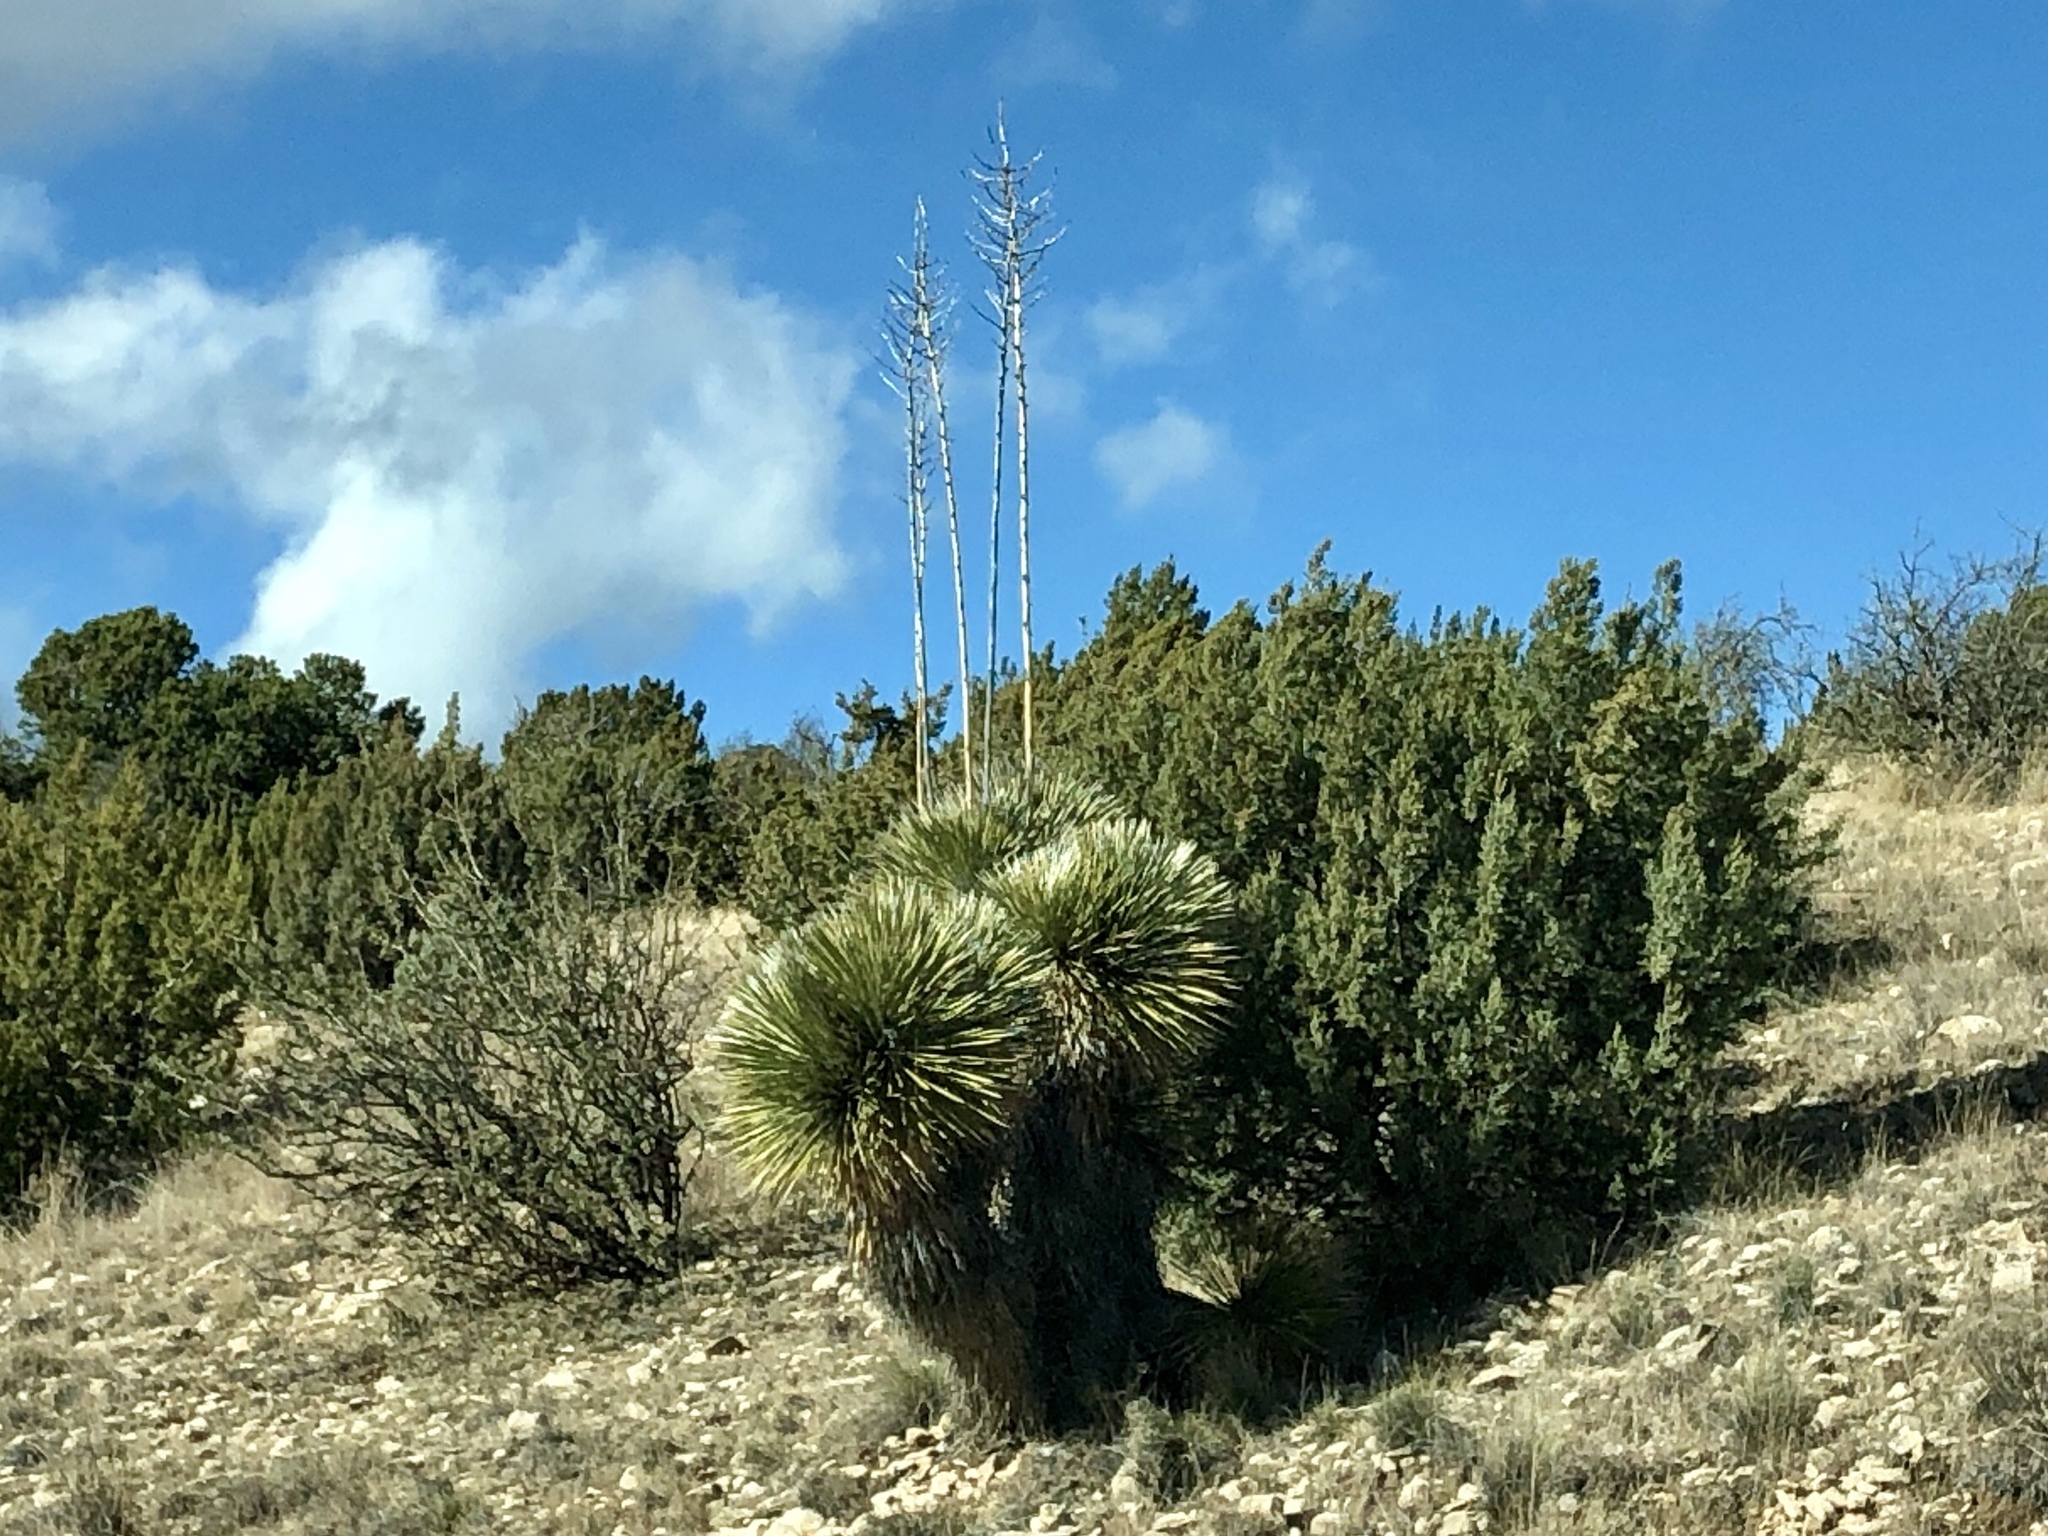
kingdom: Plantae
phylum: Tracheophyta
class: Liliopsida
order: Asparagales
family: Asparagaceae
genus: Yucca
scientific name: Yucca elata
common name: Palmella
